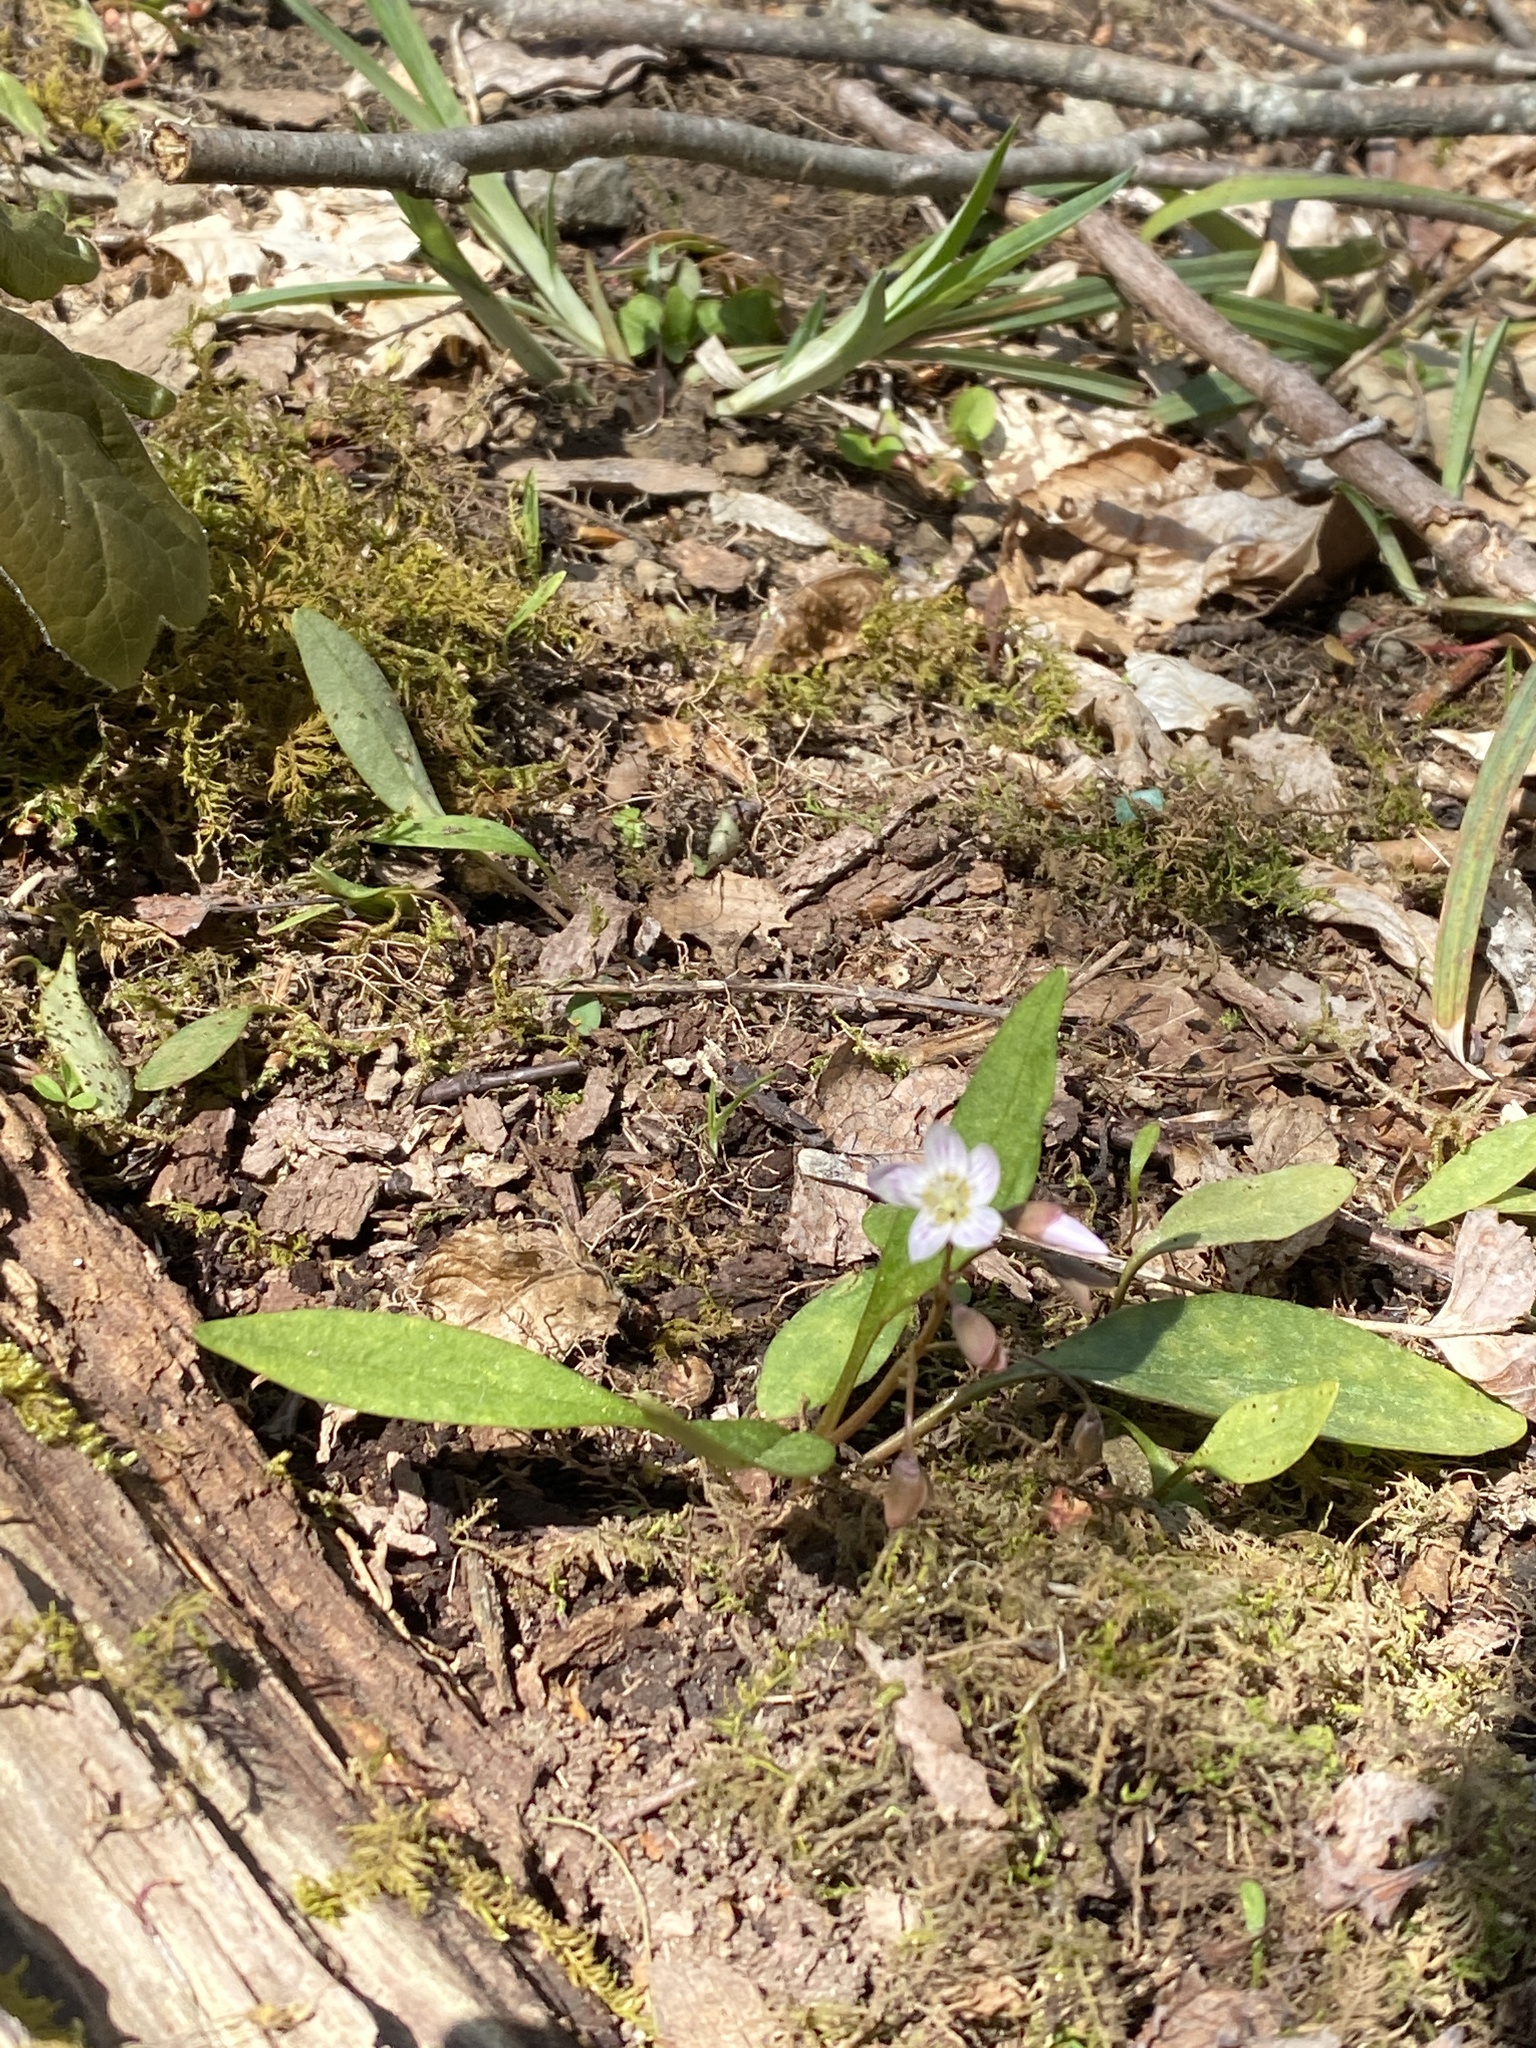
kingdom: Plantae
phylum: Tracheophyta
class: Magnoliopsida
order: Caryophyllales
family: Montiaceae
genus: Claytonia
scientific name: Claytonia caroliniana
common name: Carolina spring beauty
